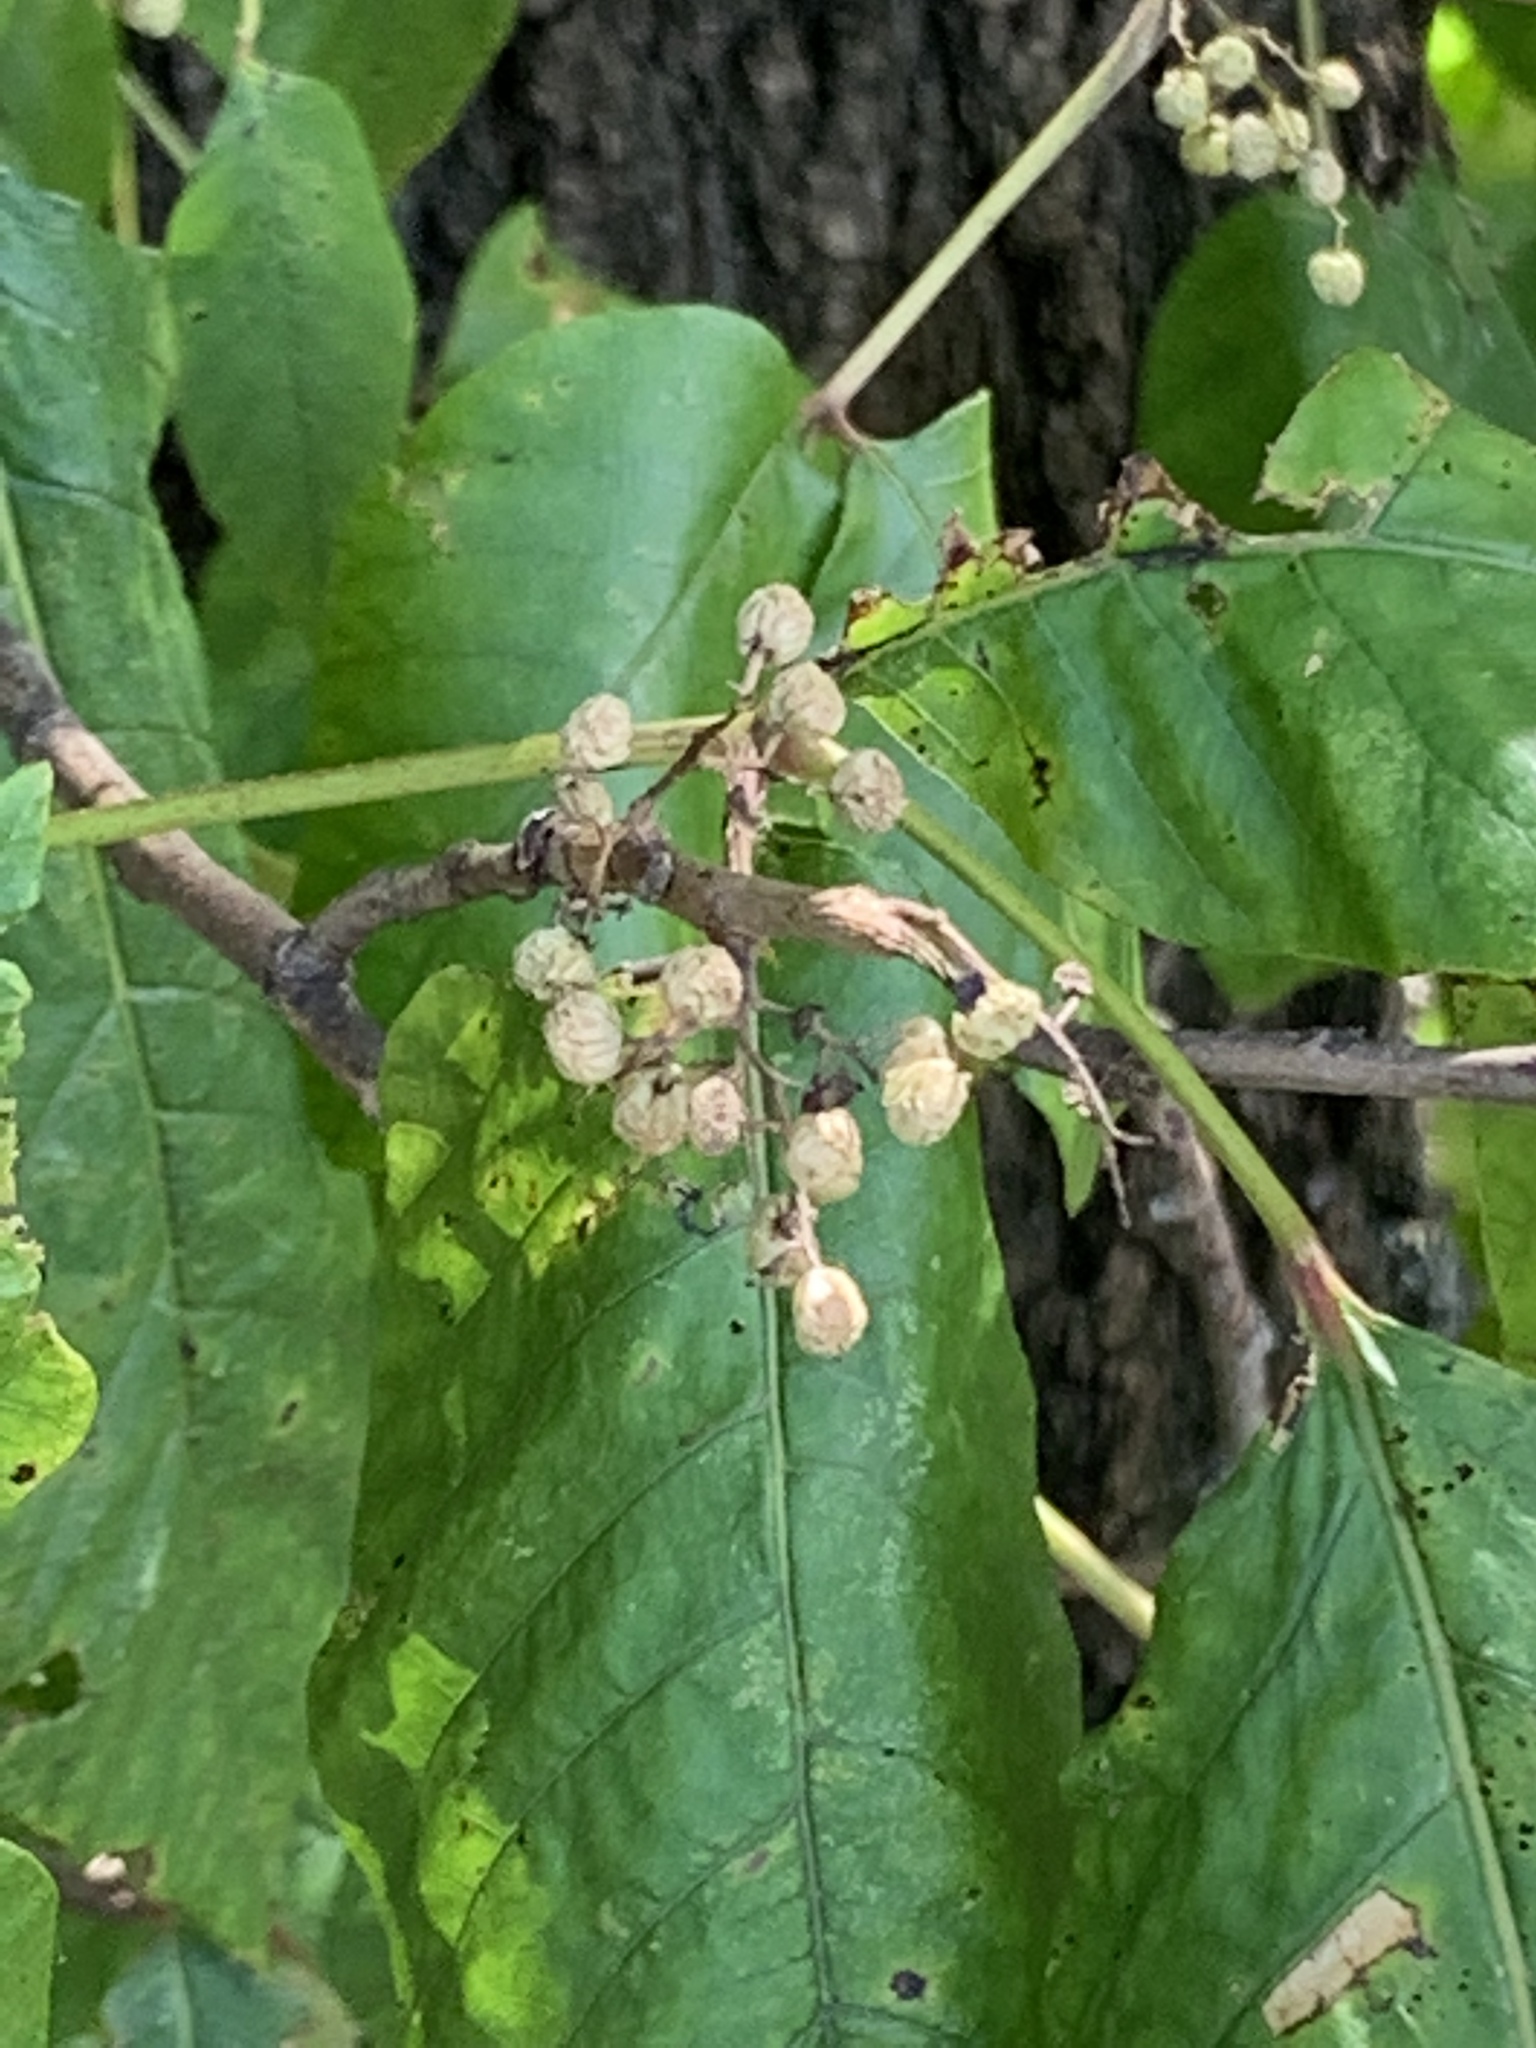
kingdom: Plantae
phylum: Tracheophyta
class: Magnoliopsida
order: Sapindales
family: Anacardiaceae
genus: Toxicodendron
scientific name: Toxicodendron radicans
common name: Poison ivy
